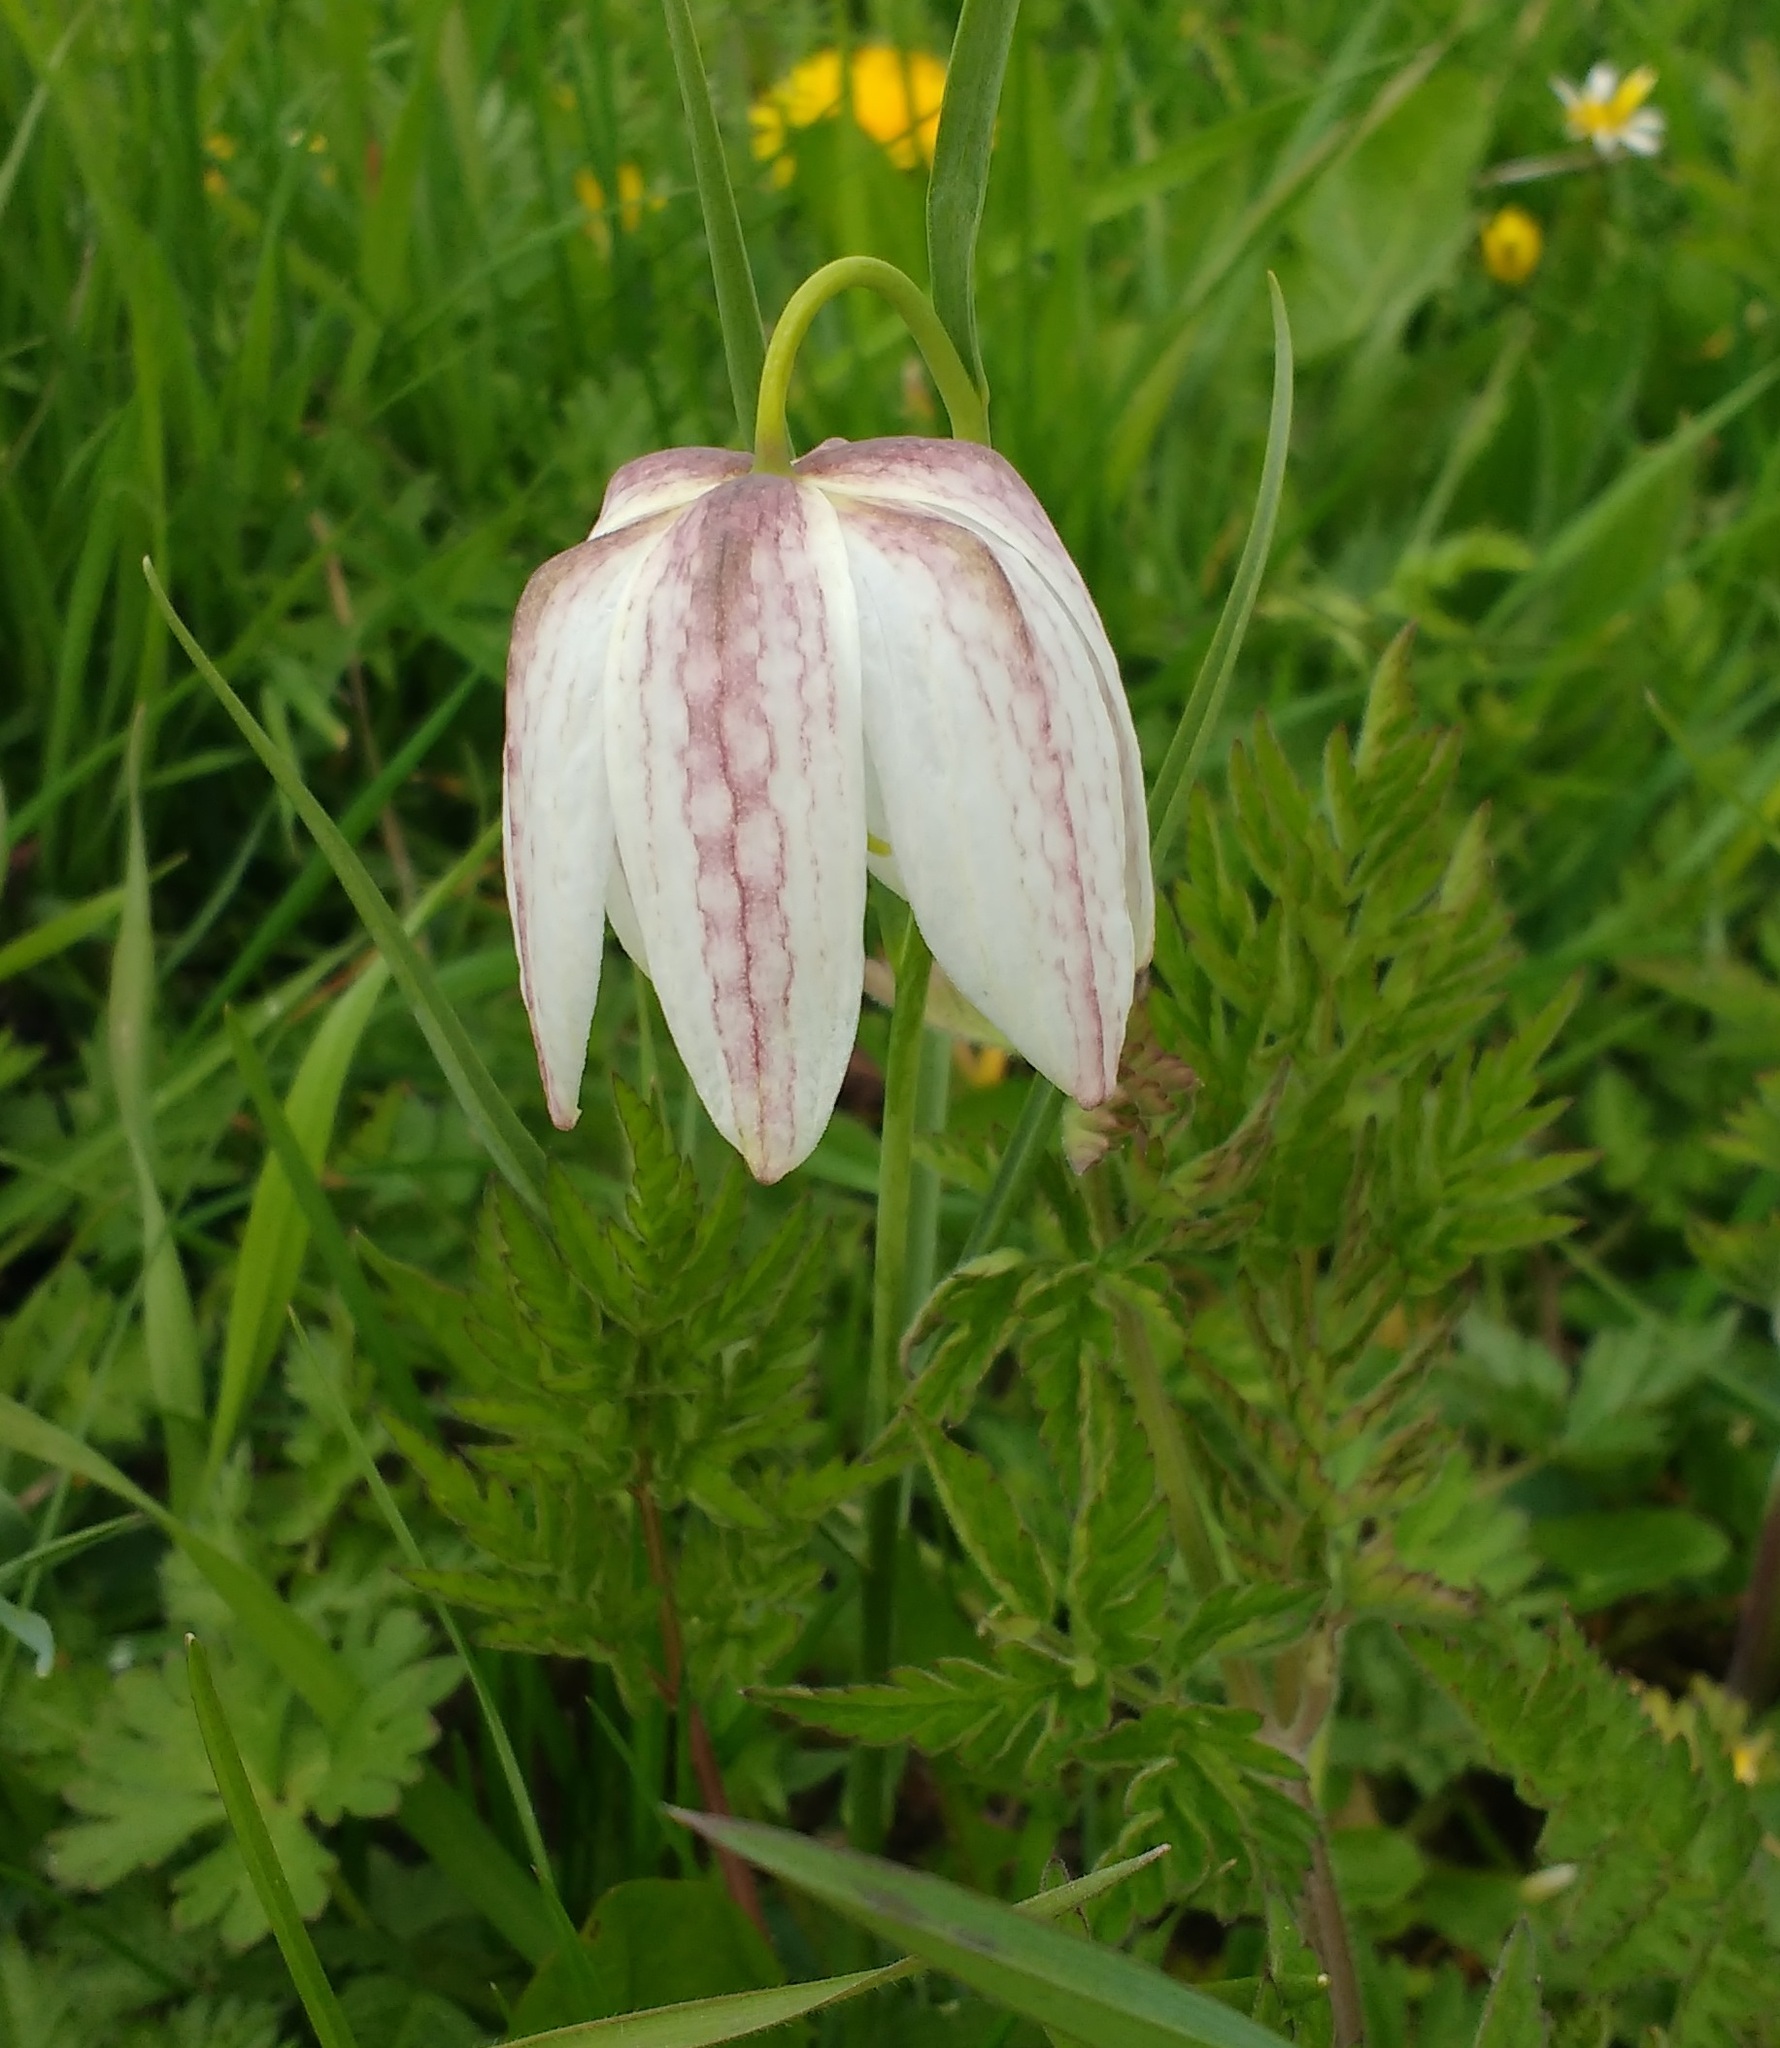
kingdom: Plantae
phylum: Tracheophyta
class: Liliopsida
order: Liliales
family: Liliaceae
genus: Fritillaria
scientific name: Fritillaria meleagris
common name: Fritillary
